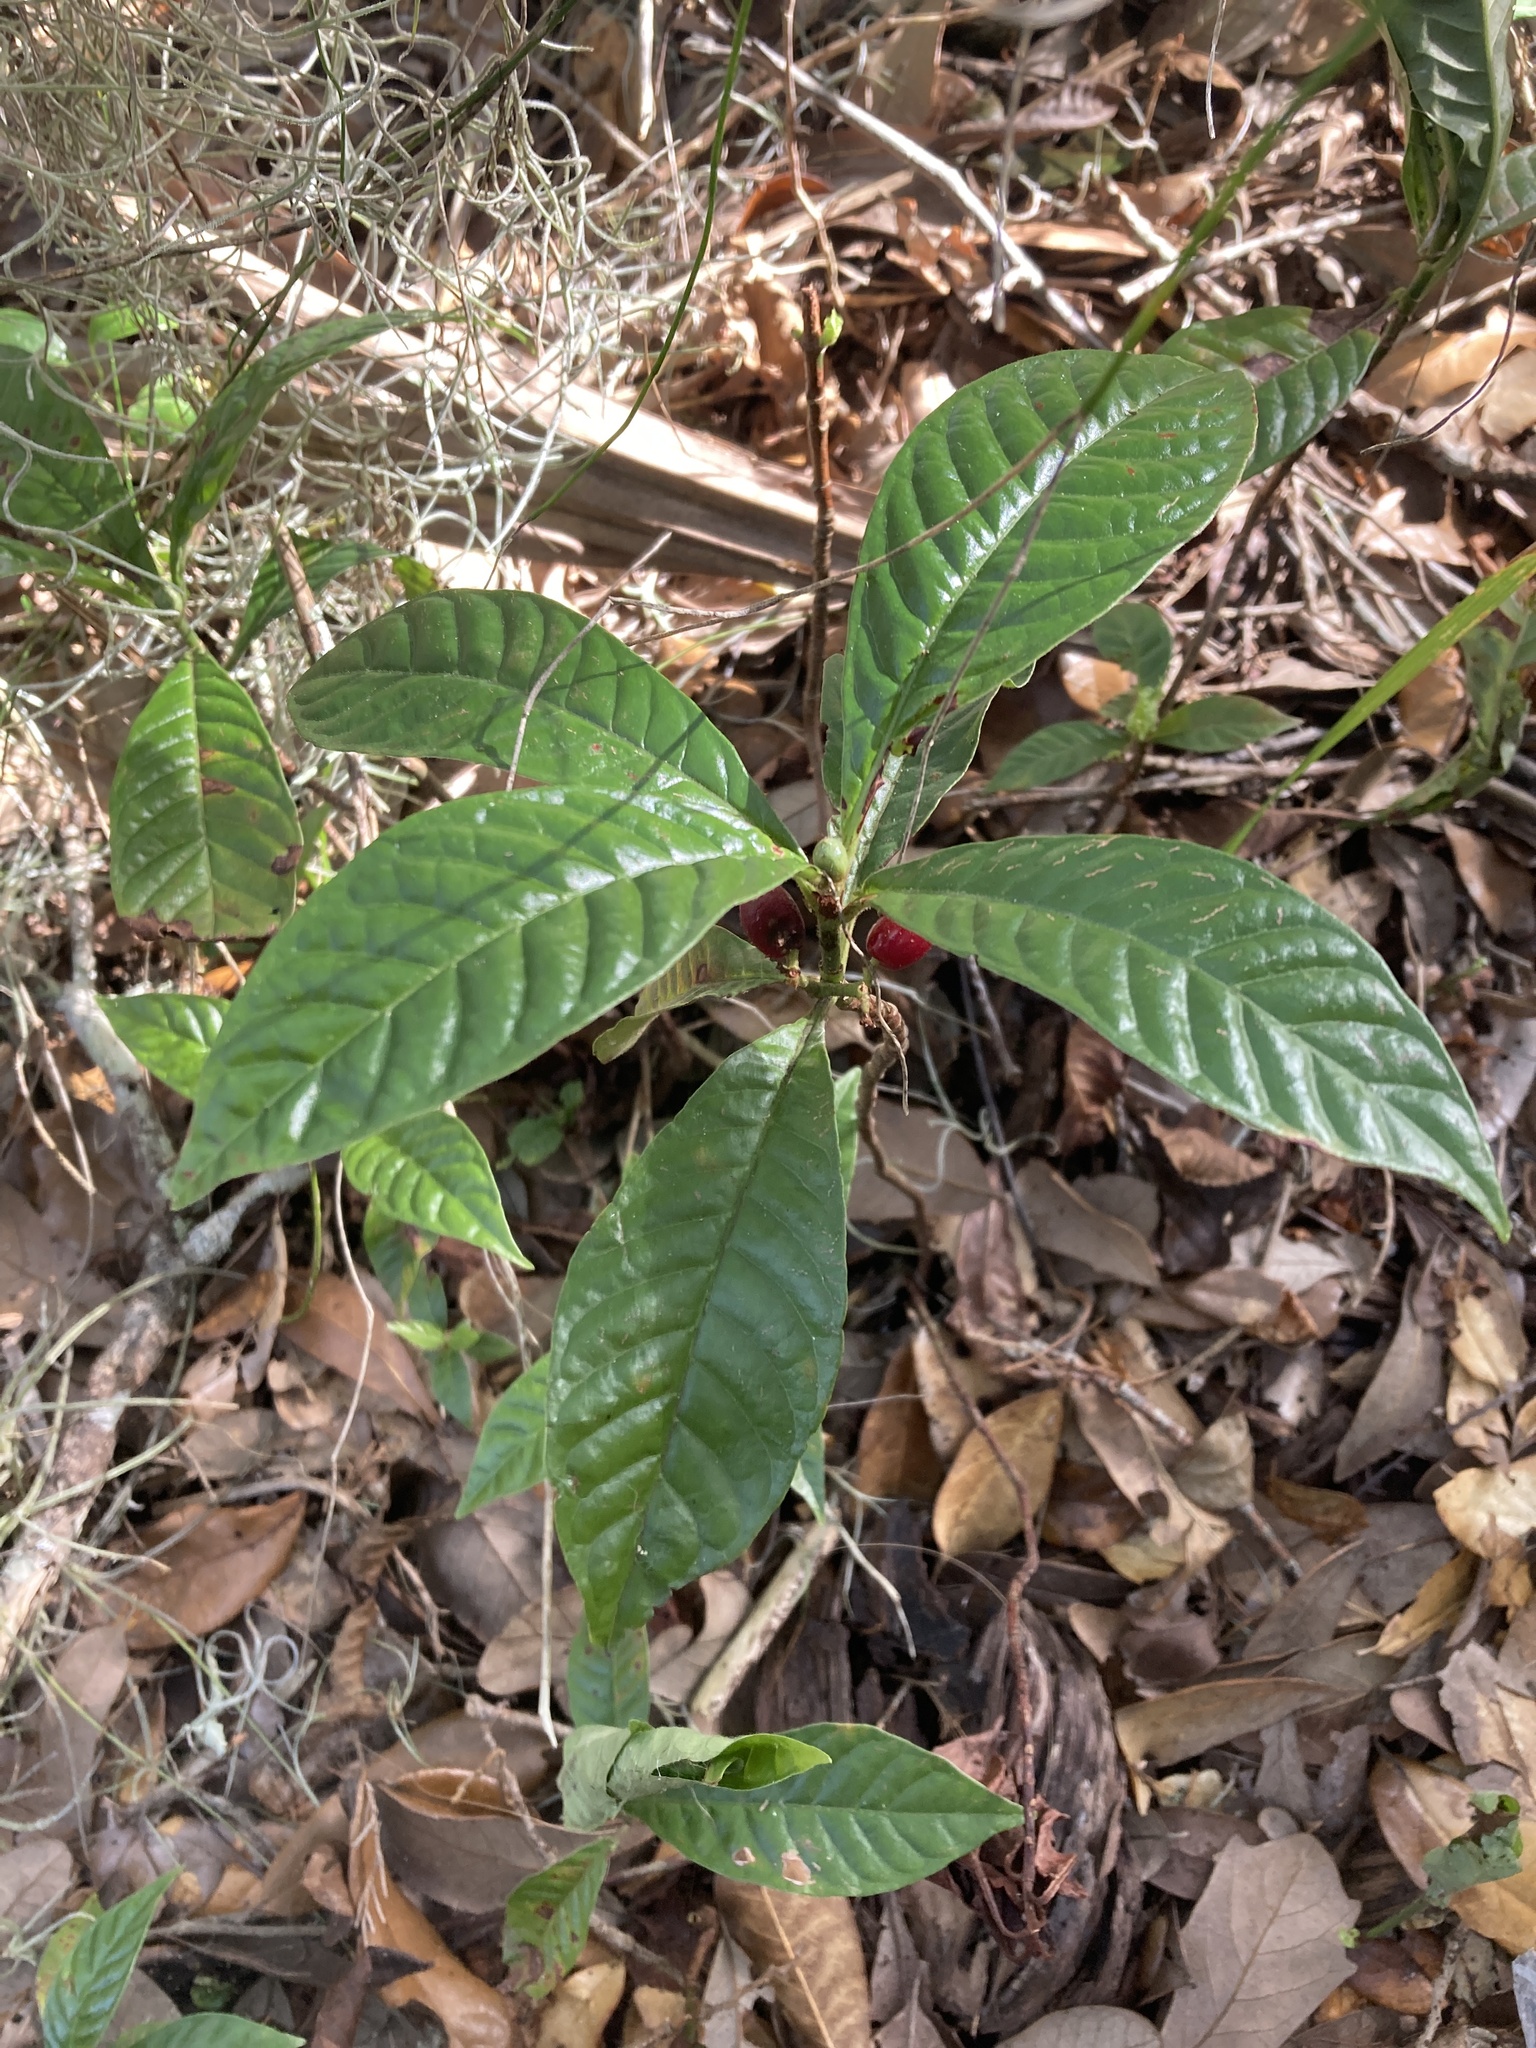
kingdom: Plantae
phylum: Tracheophyta
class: Magnoliopsida
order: Gentianales
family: Rubiaceae
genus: Psychotria
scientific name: Psychotria nervosa
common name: Bastard cankerberry
